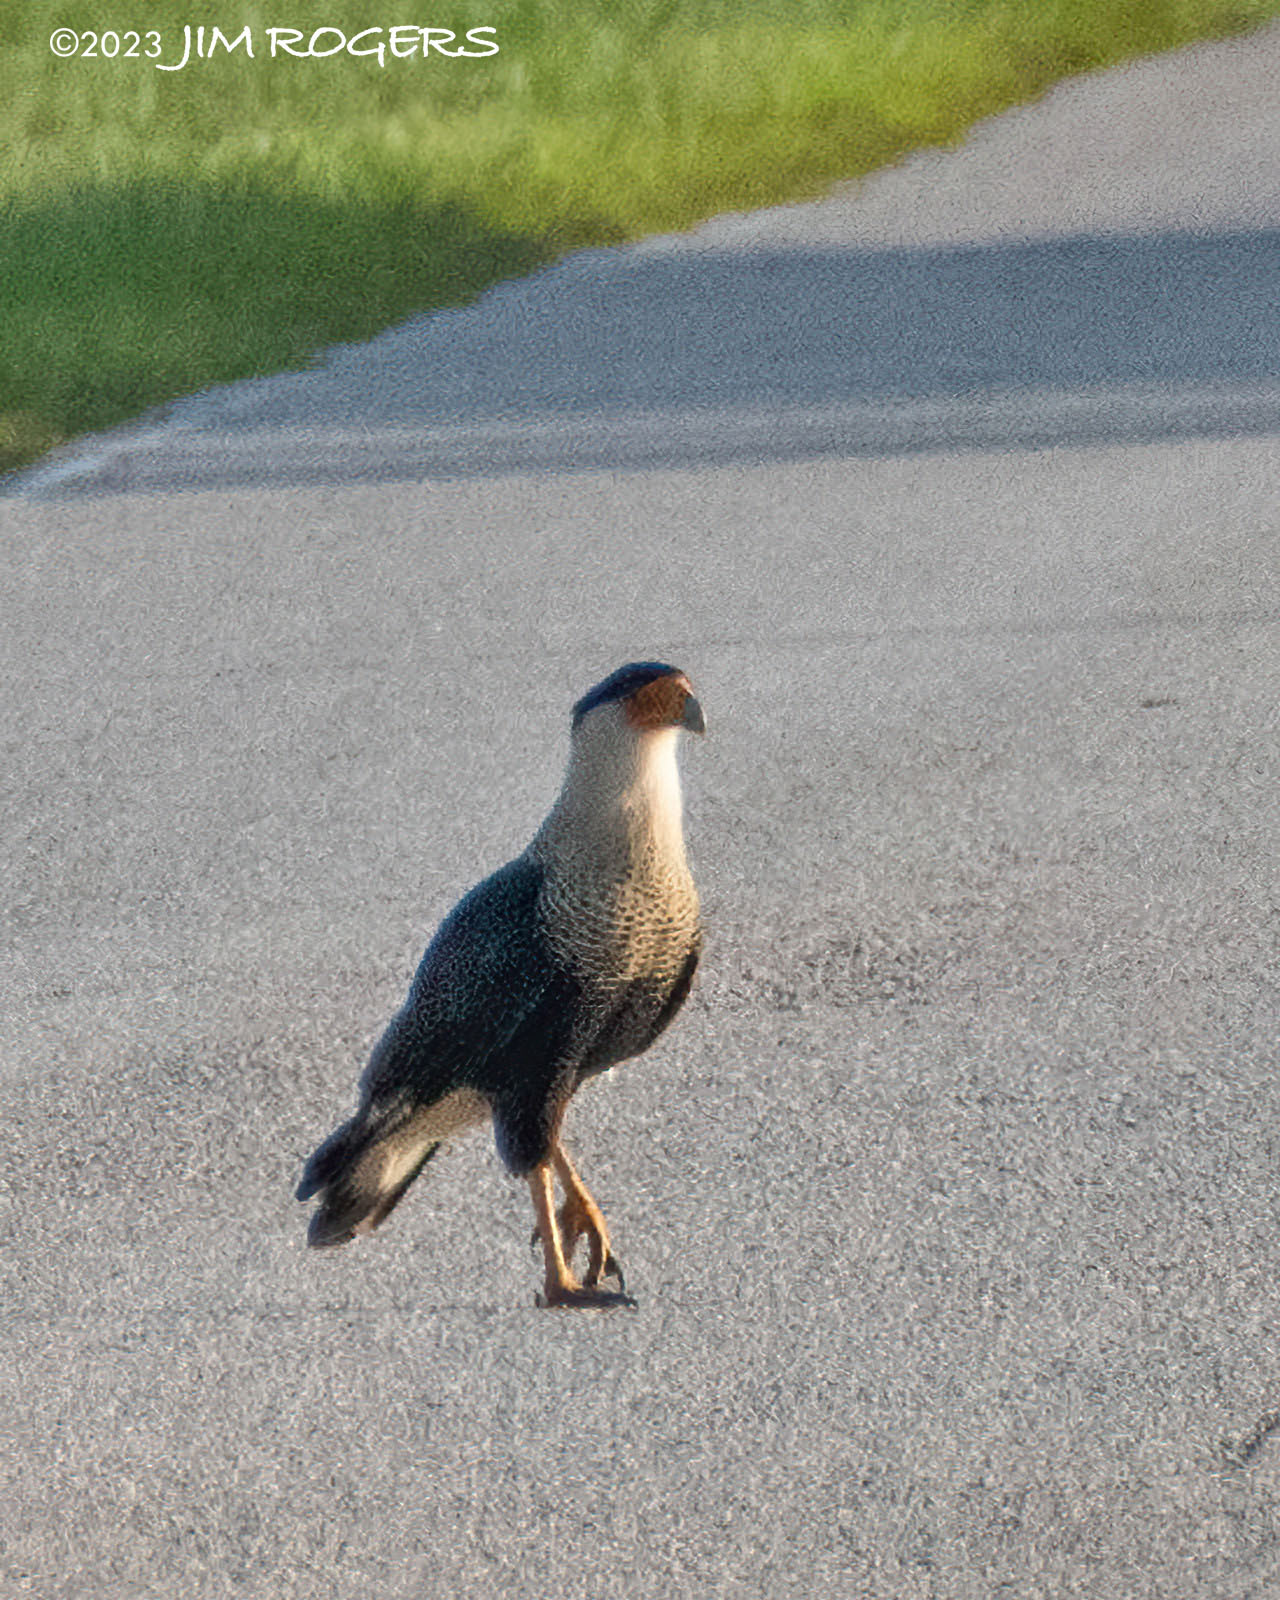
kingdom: Animalia
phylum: Chordata
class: Aves
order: Falconiformes
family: Falconidae
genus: Caracara
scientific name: Caracara plancus
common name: Southern caracara
